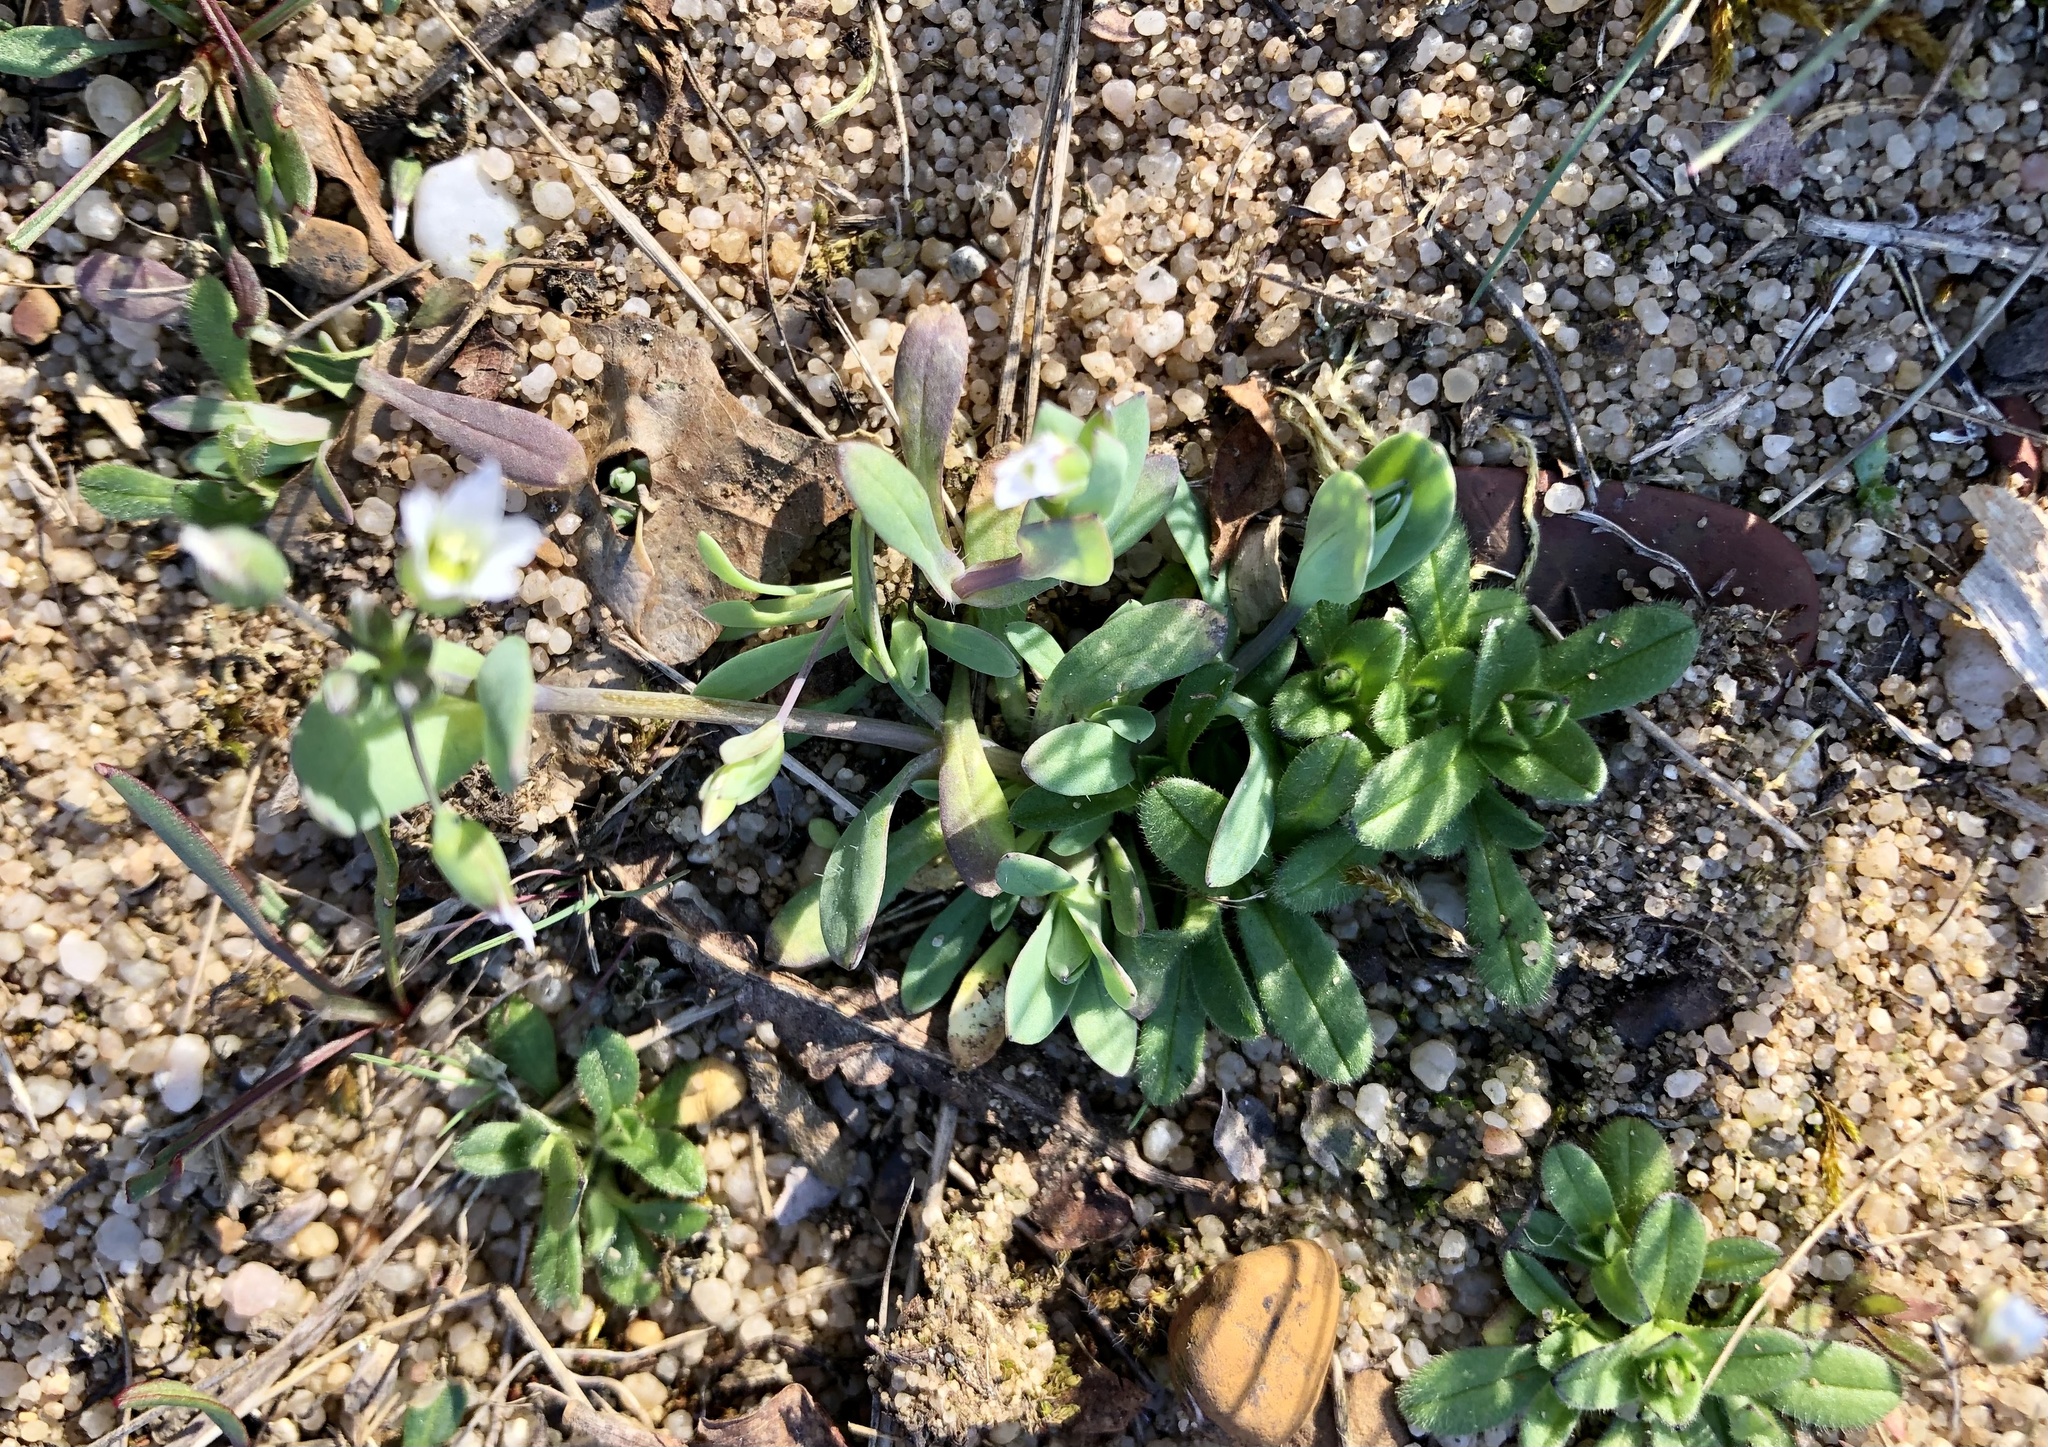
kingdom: Plantae
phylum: Tracheophyta
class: Magnoliopsida
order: Caryophyllales
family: Caryophyllaceae
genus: Holosteum
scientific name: Holosteum umbellatum
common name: Jagged chickweed
